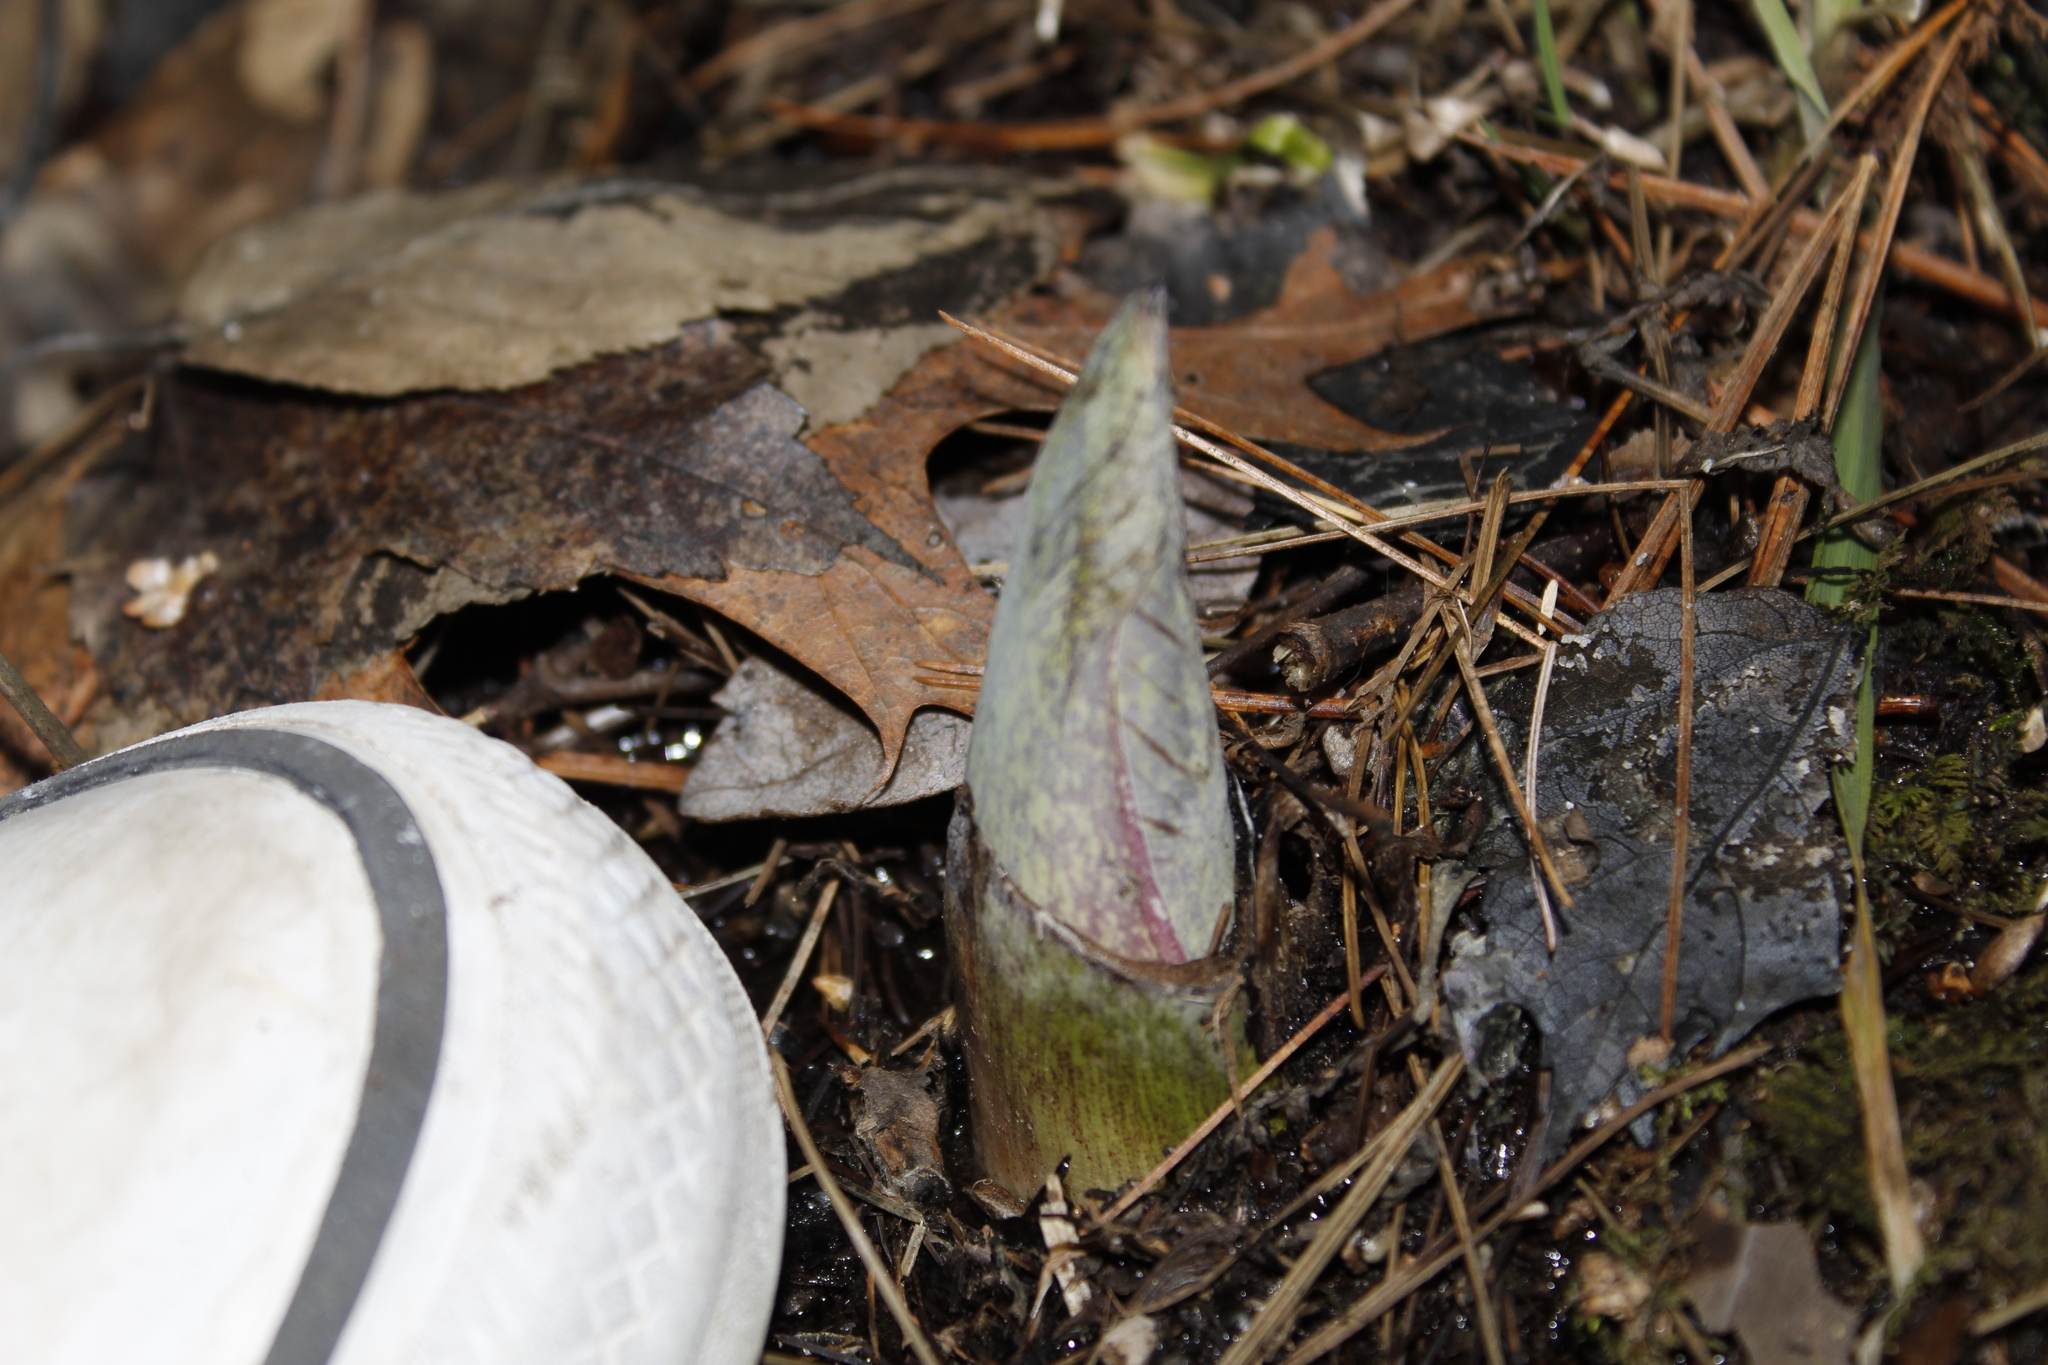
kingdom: Plantae
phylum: Tracheophyta
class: Liliopsida
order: Alismatales
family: Araceae
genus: Symplocarpus
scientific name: Symplocarpus foetidus
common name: Eastern skunk cabbage
